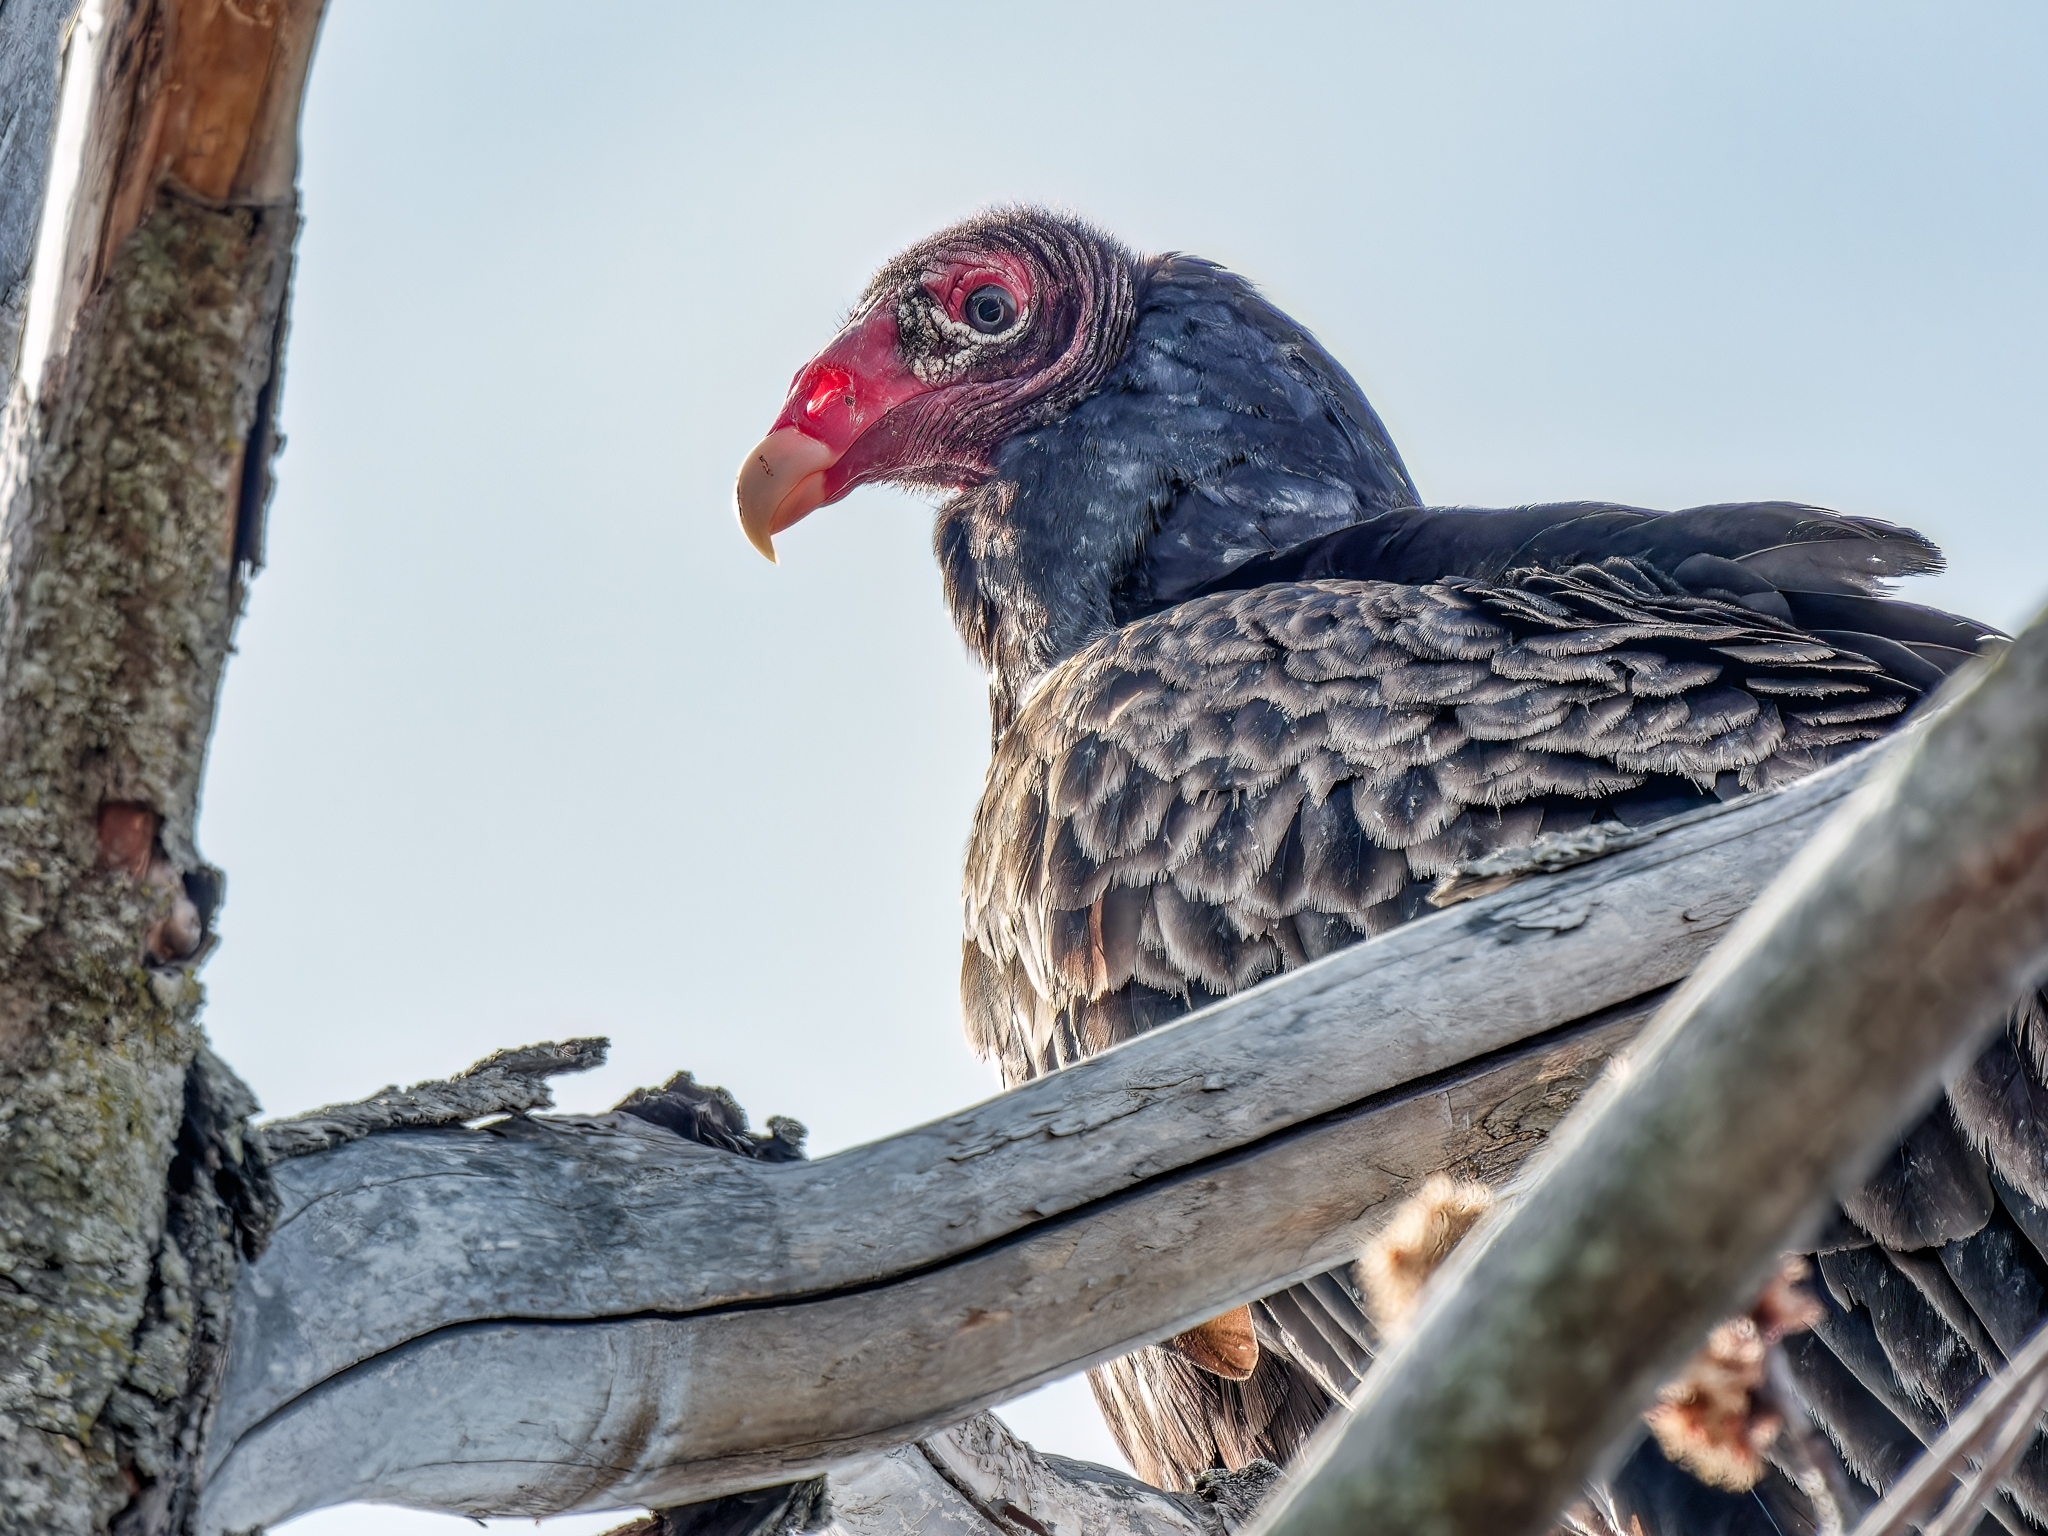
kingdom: Animalia
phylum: Chordata
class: Aves
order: Accipitriformes
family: Cathartidae
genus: Cathartes
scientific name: Cathartes aura
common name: Turkey vulture
